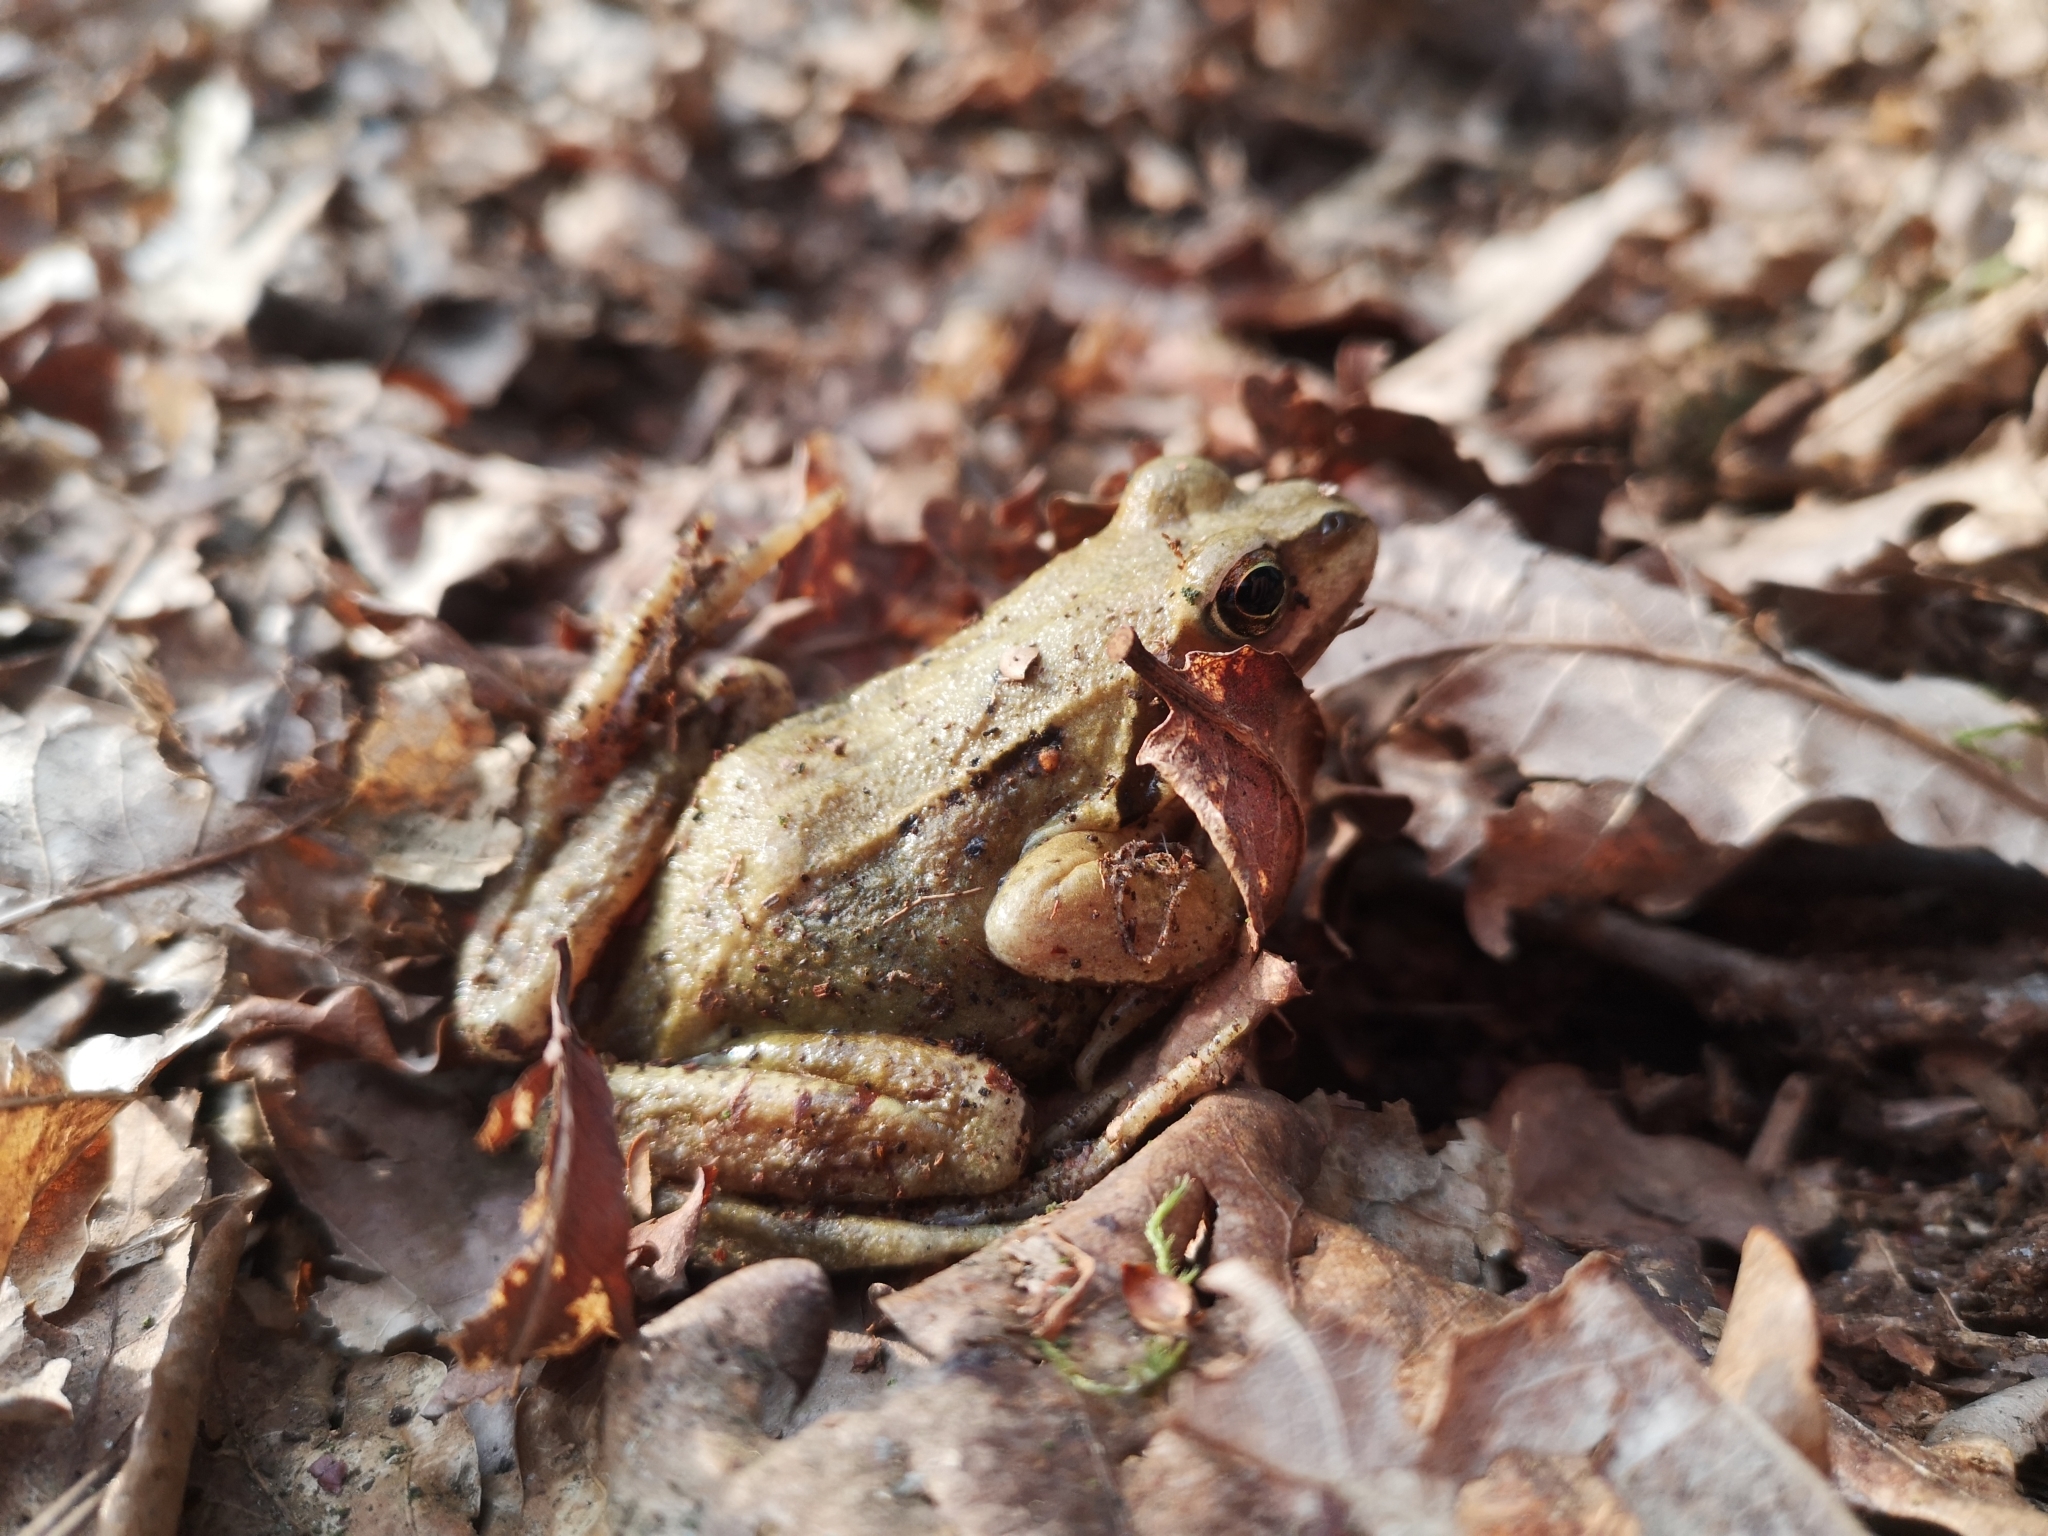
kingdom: Animalia
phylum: Chordata
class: Amphibia
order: Anura
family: Ranidae
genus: Rana
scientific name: Rana temporaria
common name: Common frog
